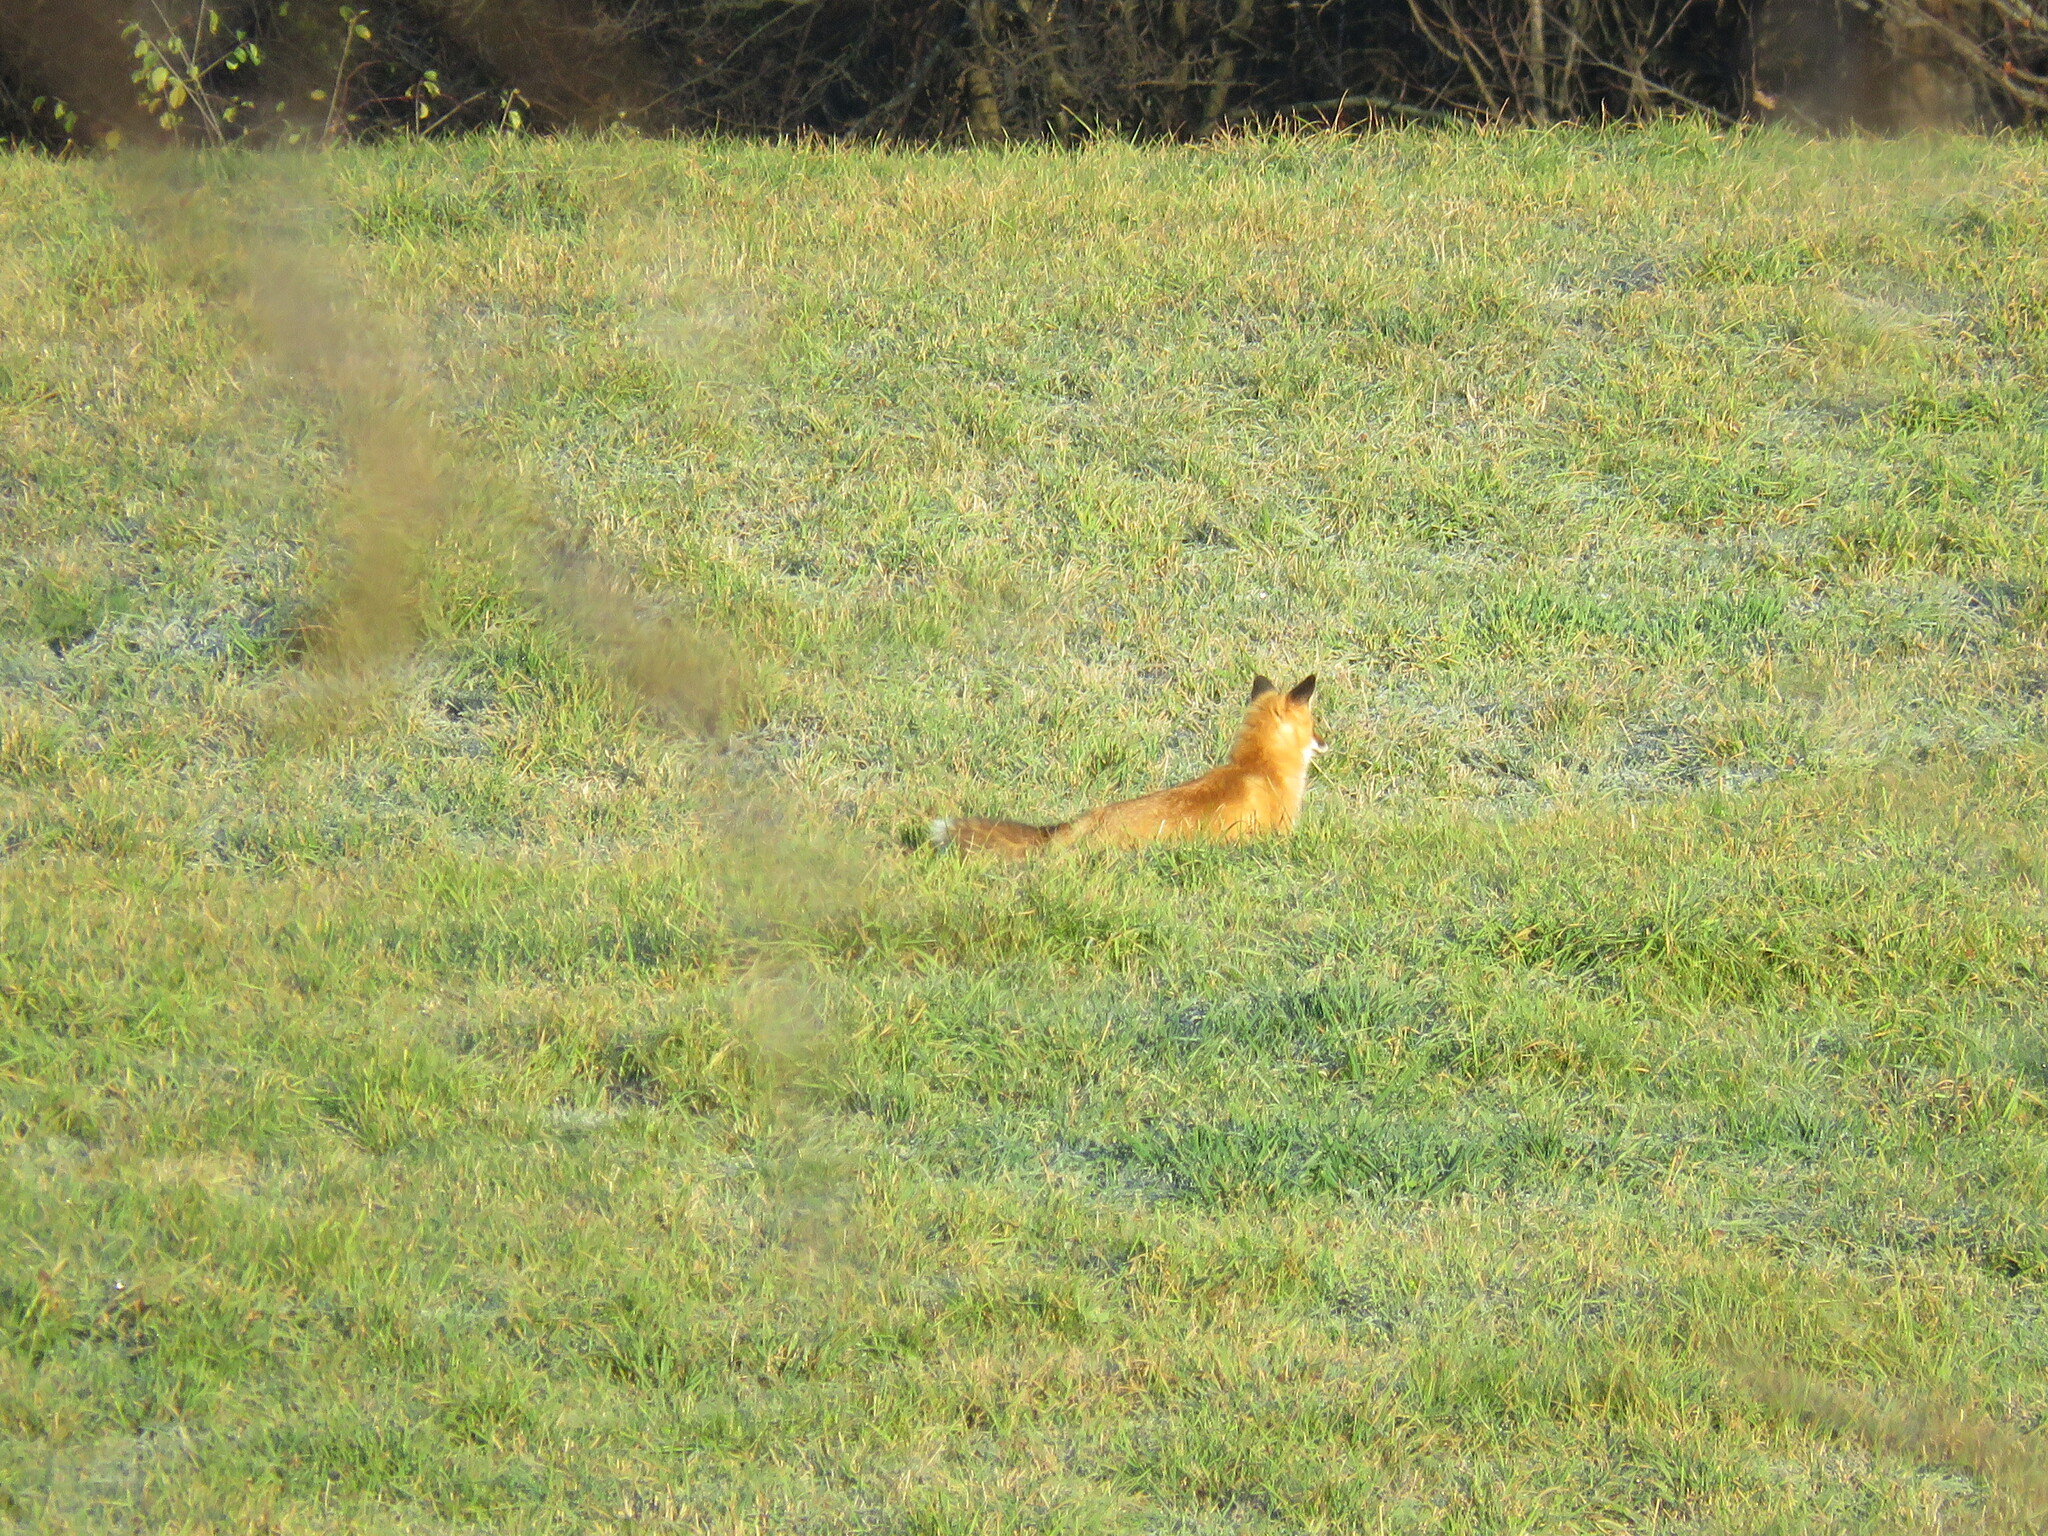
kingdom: Animalia
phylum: Chordata
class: Mammalia
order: Carnivora
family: Canidae
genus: Vulpes
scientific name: Vulpes vulpes
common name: Red fox
